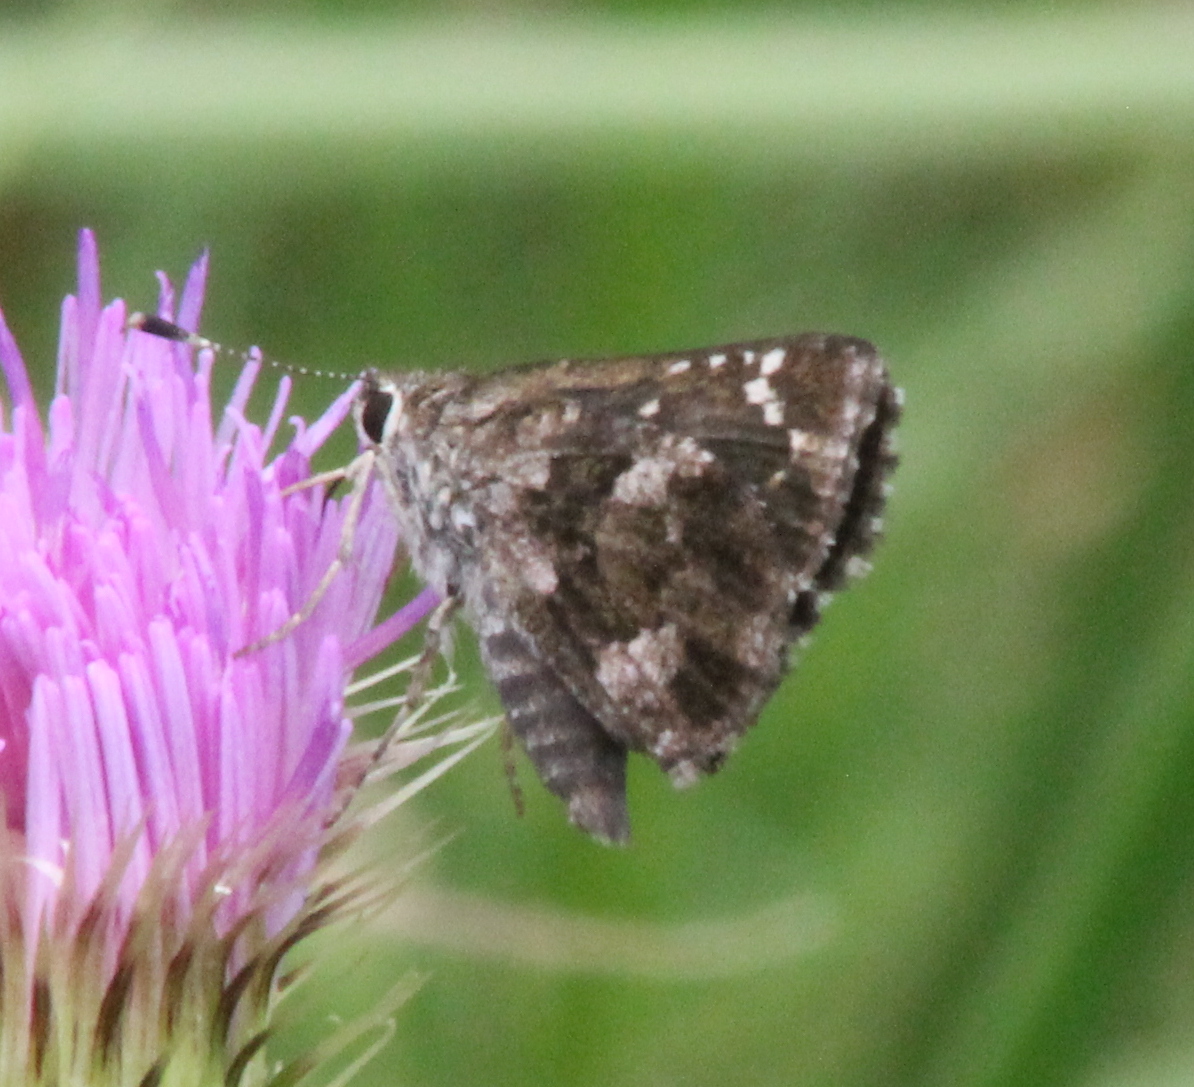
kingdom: Animalia
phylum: Arthropoda
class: Insecta
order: Lepidoptera
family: Hesperiidae
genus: Mastor
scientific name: Mastor nysa
